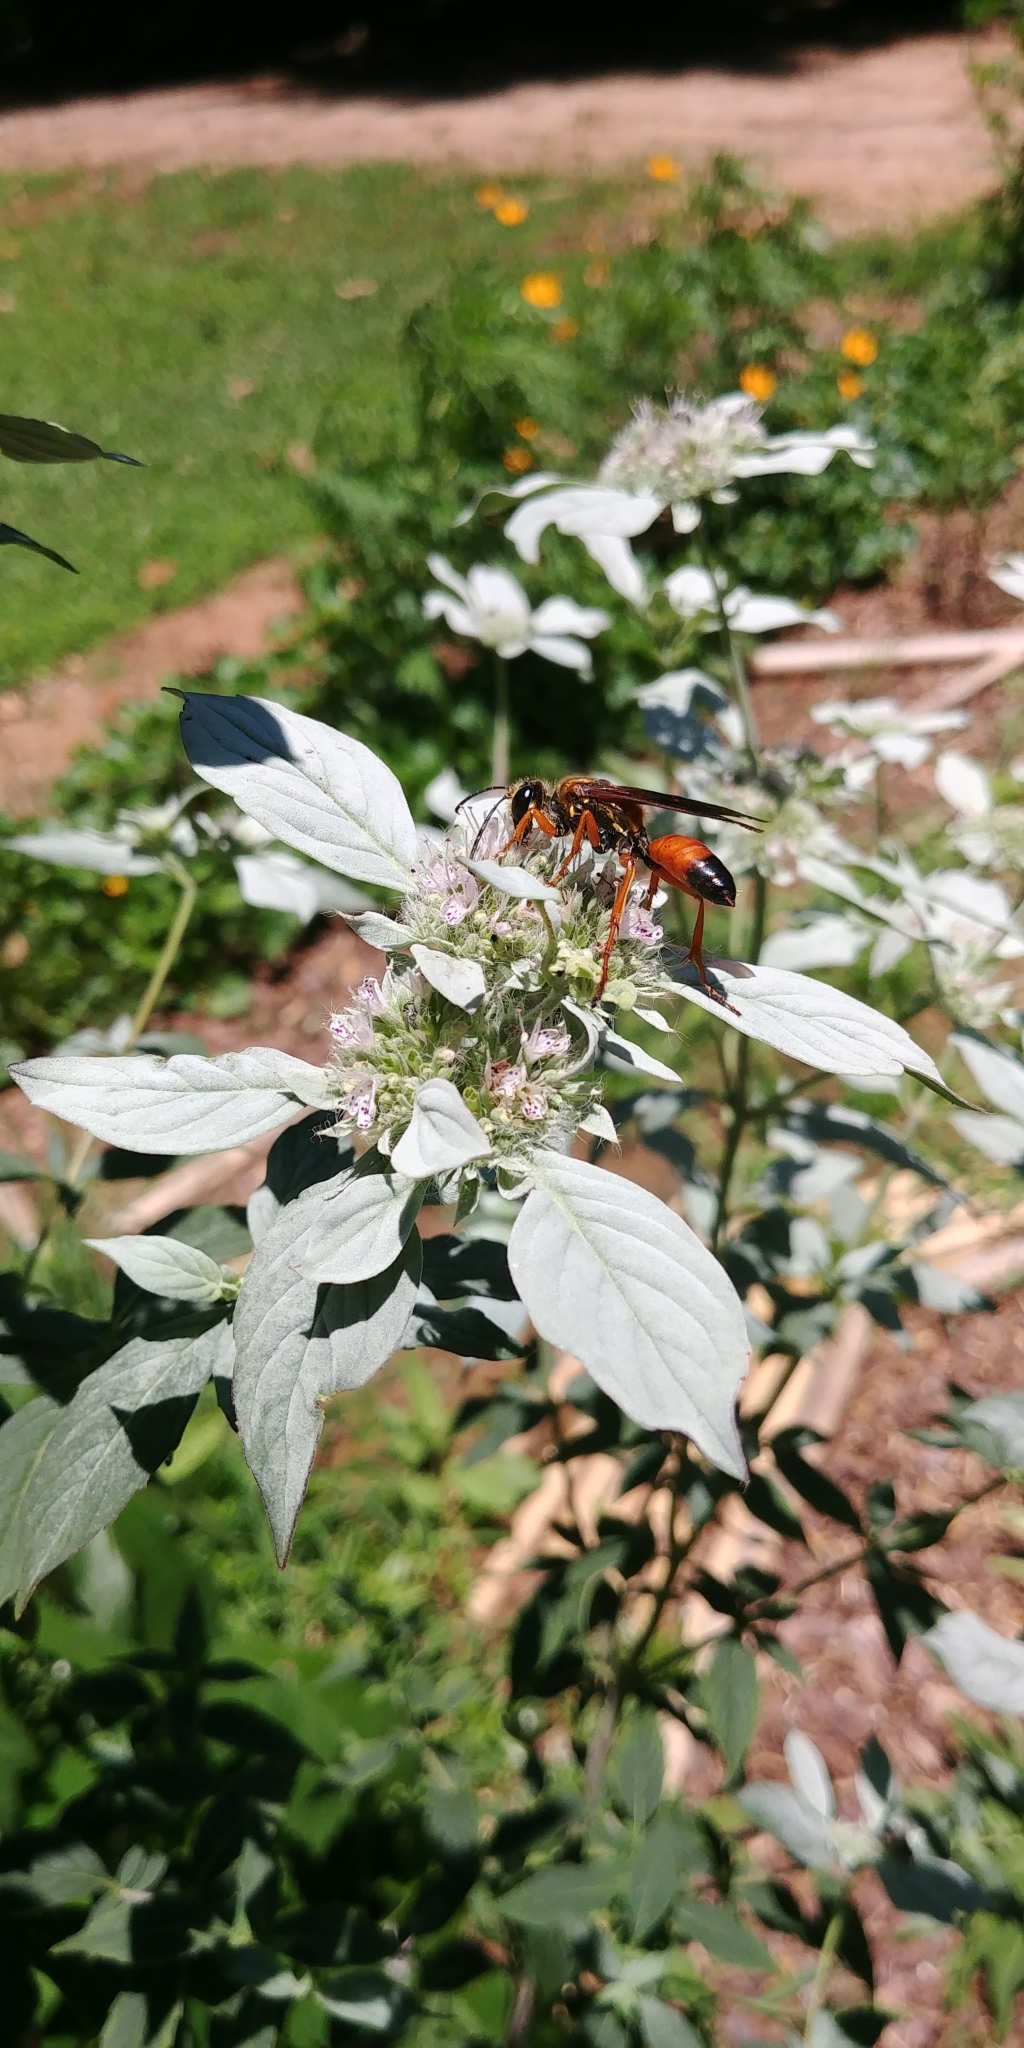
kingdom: Animalia
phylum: Arthropoda
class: Insecta
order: Hymenoptera
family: Sphecidae
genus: Sphex
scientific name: Sphex ichneumoneus
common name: Great golden digger wasp
